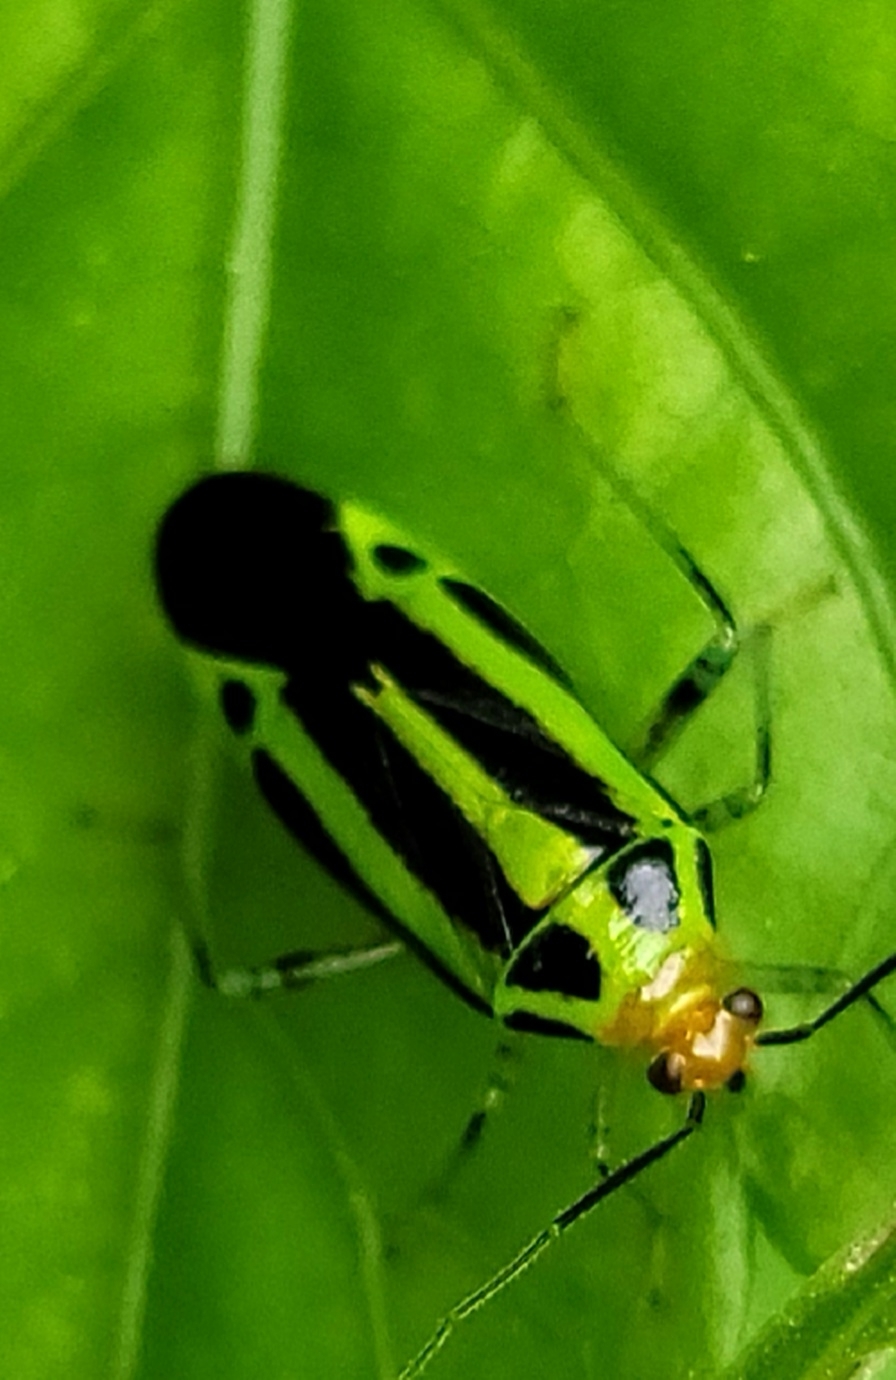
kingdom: Animalia
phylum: Arthropoda
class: Insecta
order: Hemiptera
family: Miridae
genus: Poecilocapsus
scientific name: Poecilocapsus lineatus
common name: Four-lined plant bug
